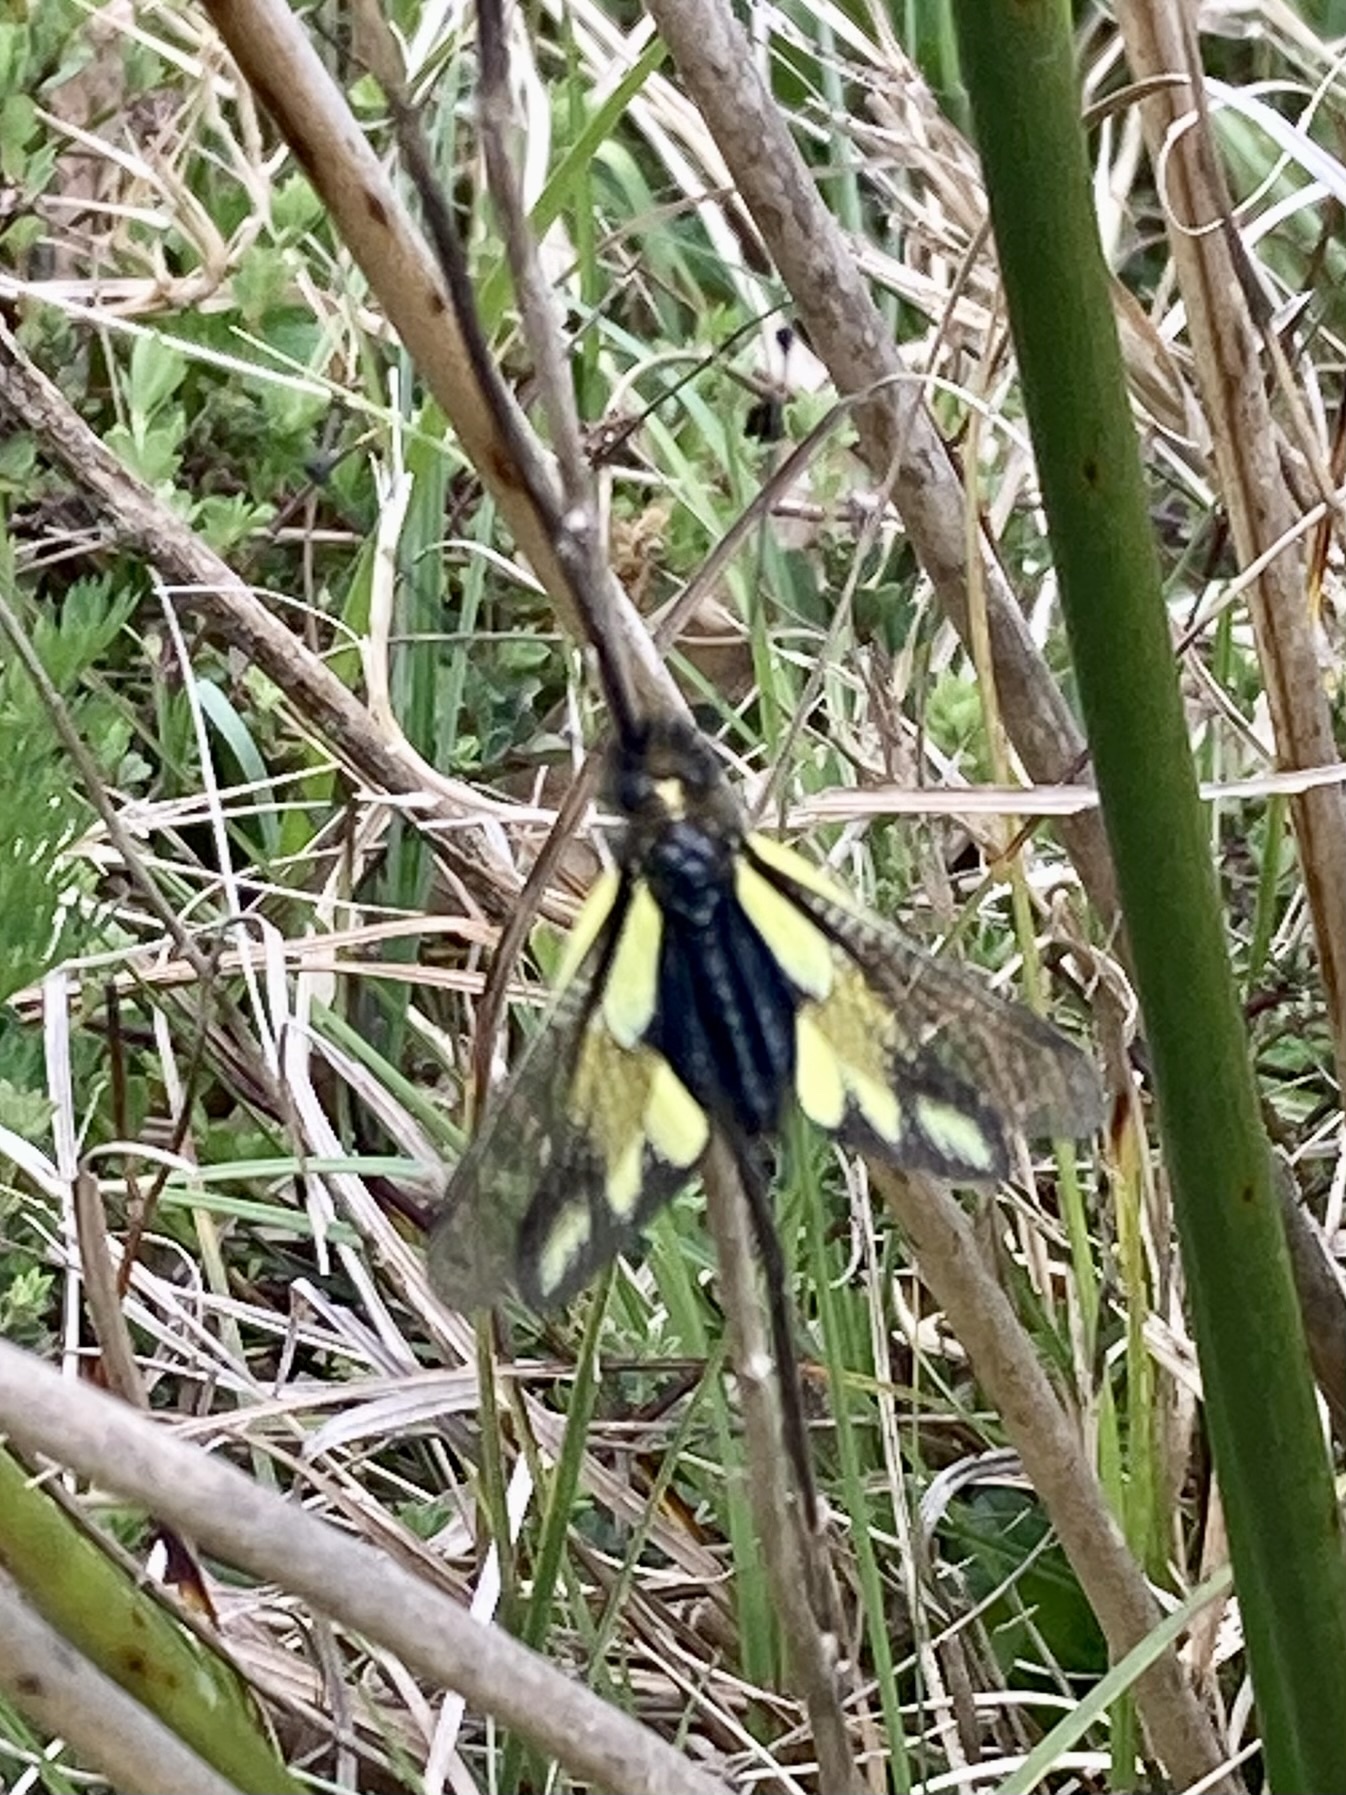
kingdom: Animalia
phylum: Arthropoda
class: Insecta
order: Neuroptera
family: Ascalaphidae
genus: Libelloides
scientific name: Libelloides coccajus
